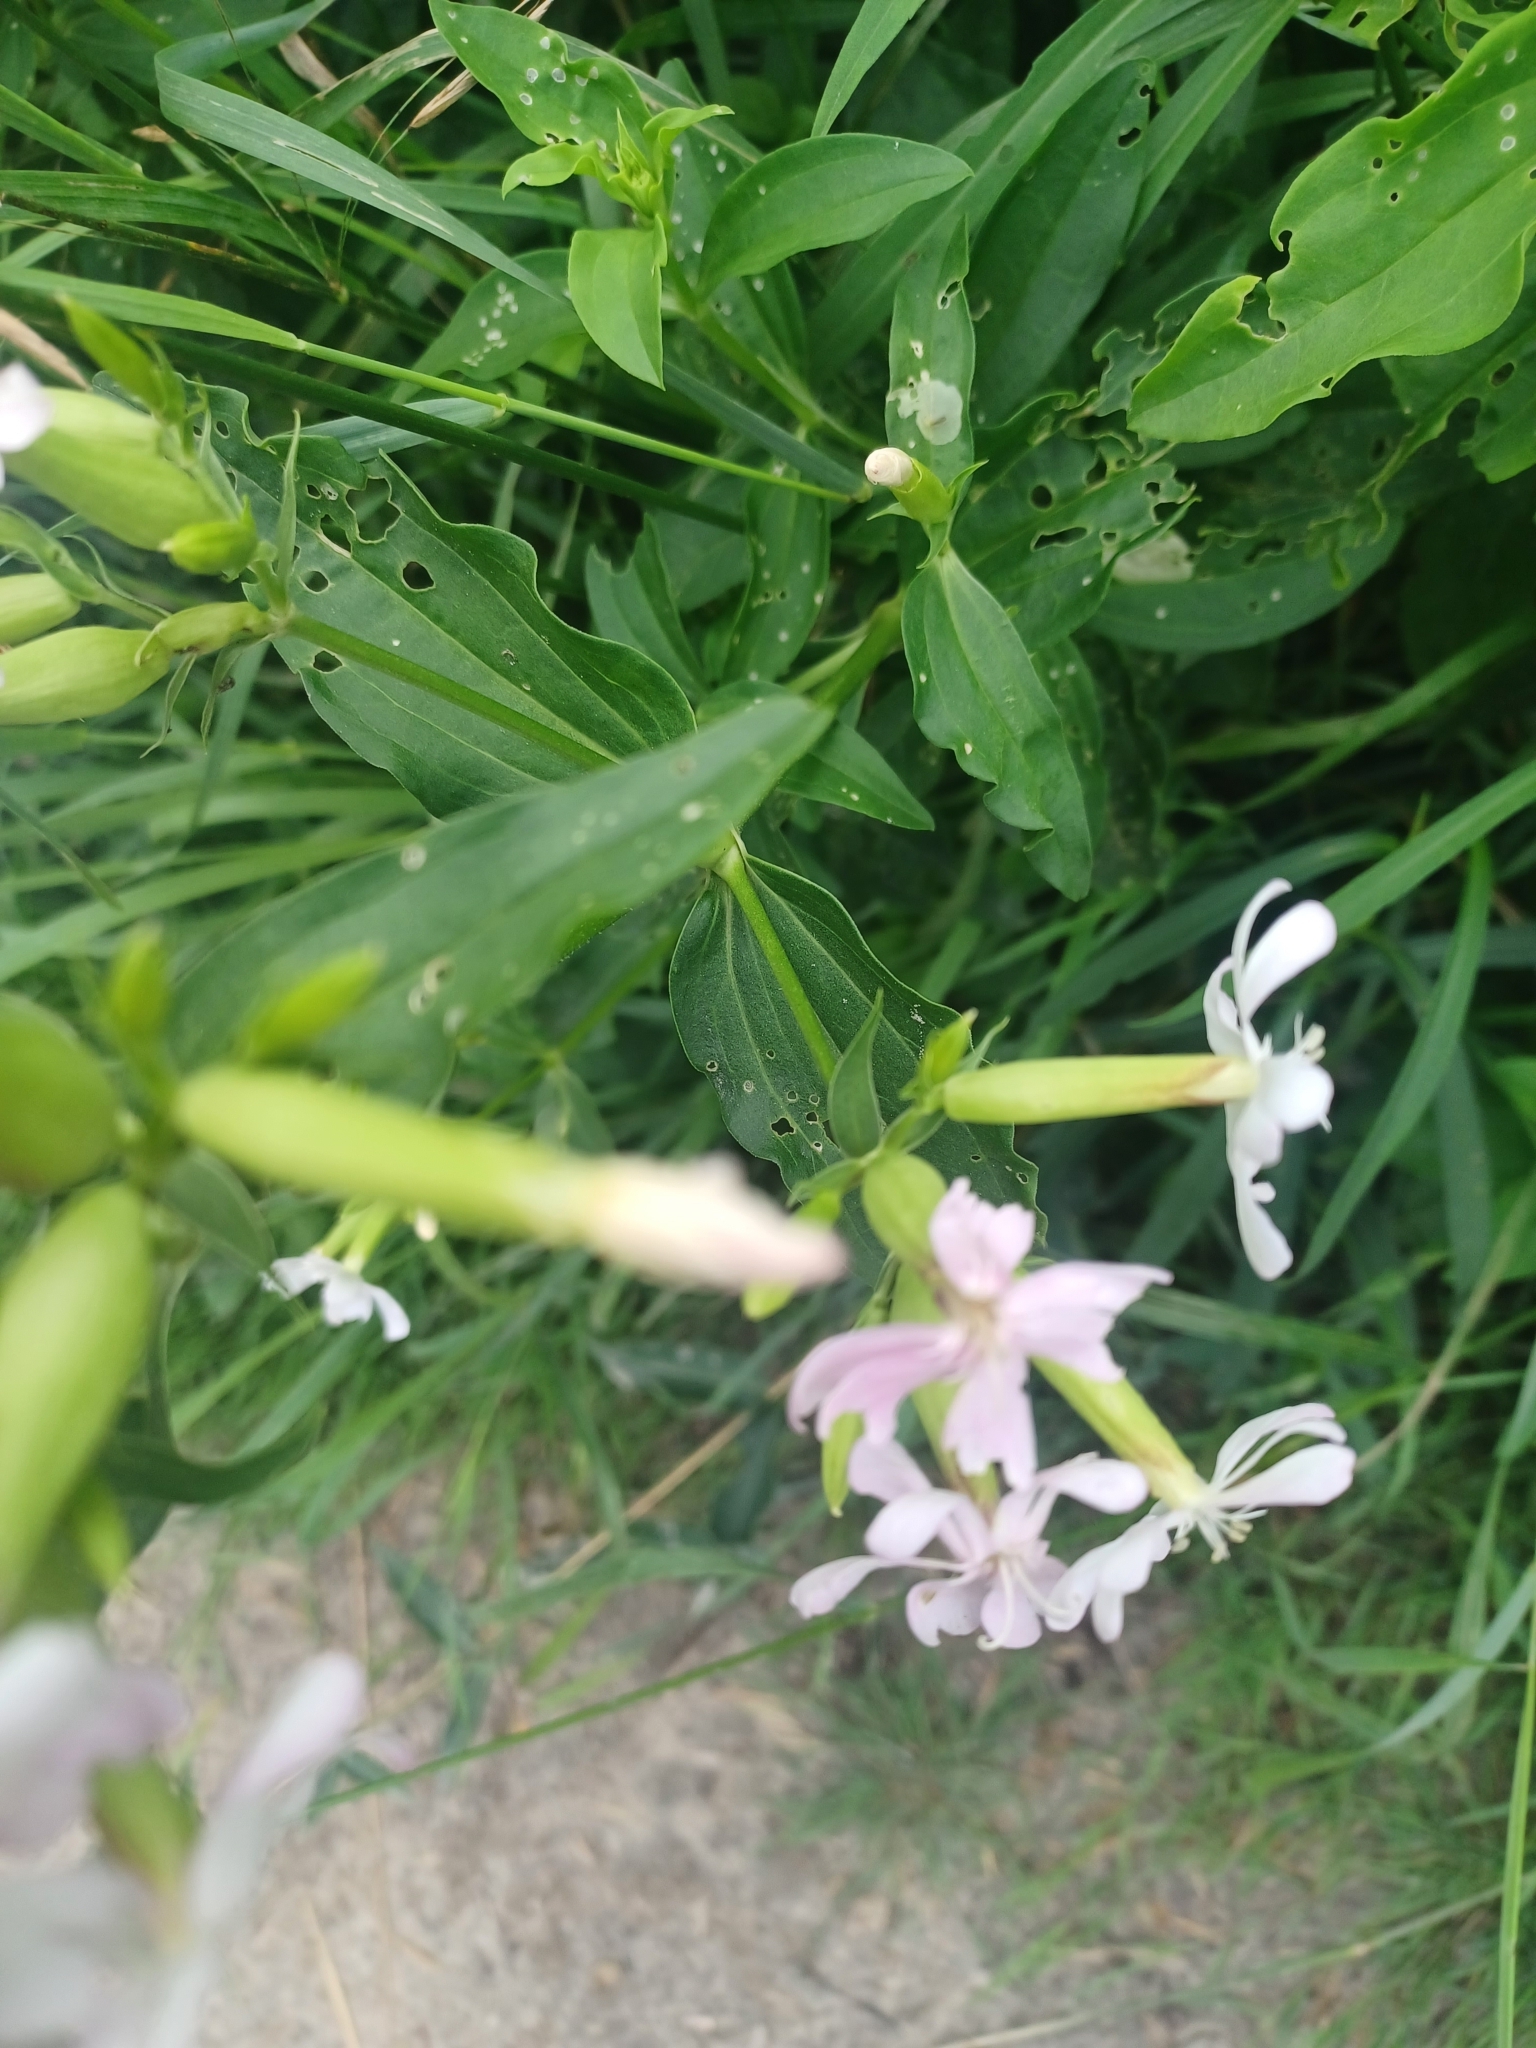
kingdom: Plantae
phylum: Tracheophyta
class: Magnoliopsida
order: Caryophyllales
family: Caryophyllaceae
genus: Saponaria
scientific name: Saponaria officinalis
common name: Soapwort
